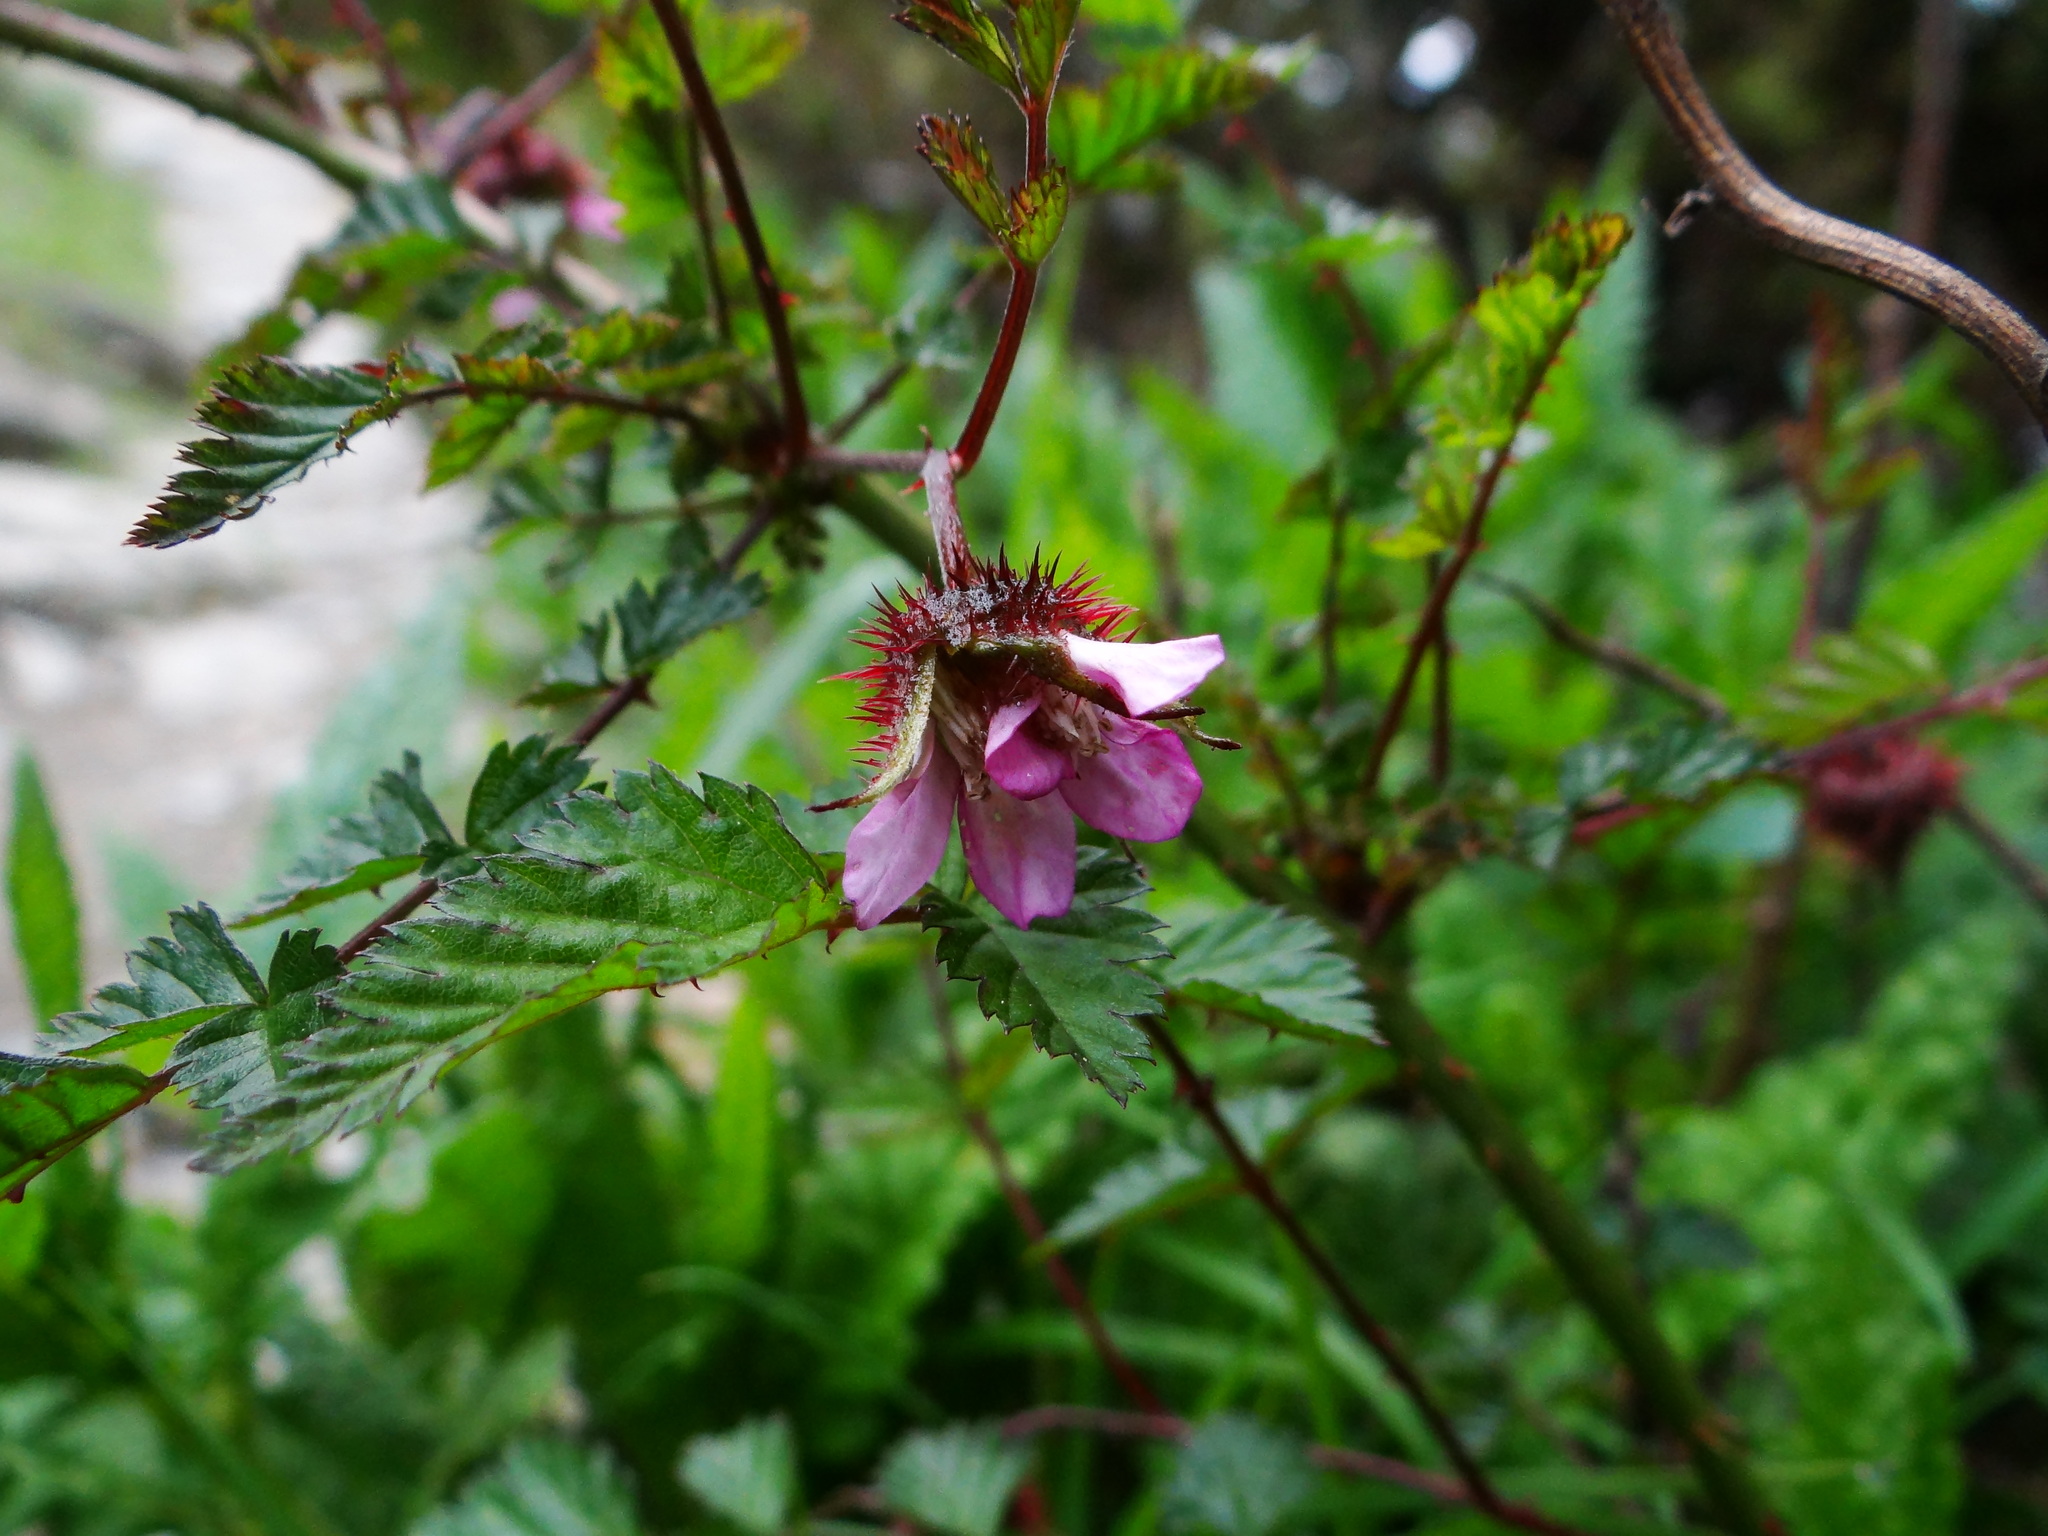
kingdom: Plantae
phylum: Tracheophyta
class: Magnoliopsida
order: Rosales
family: Rosaceae
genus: Rubus
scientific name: Rubus pungens
